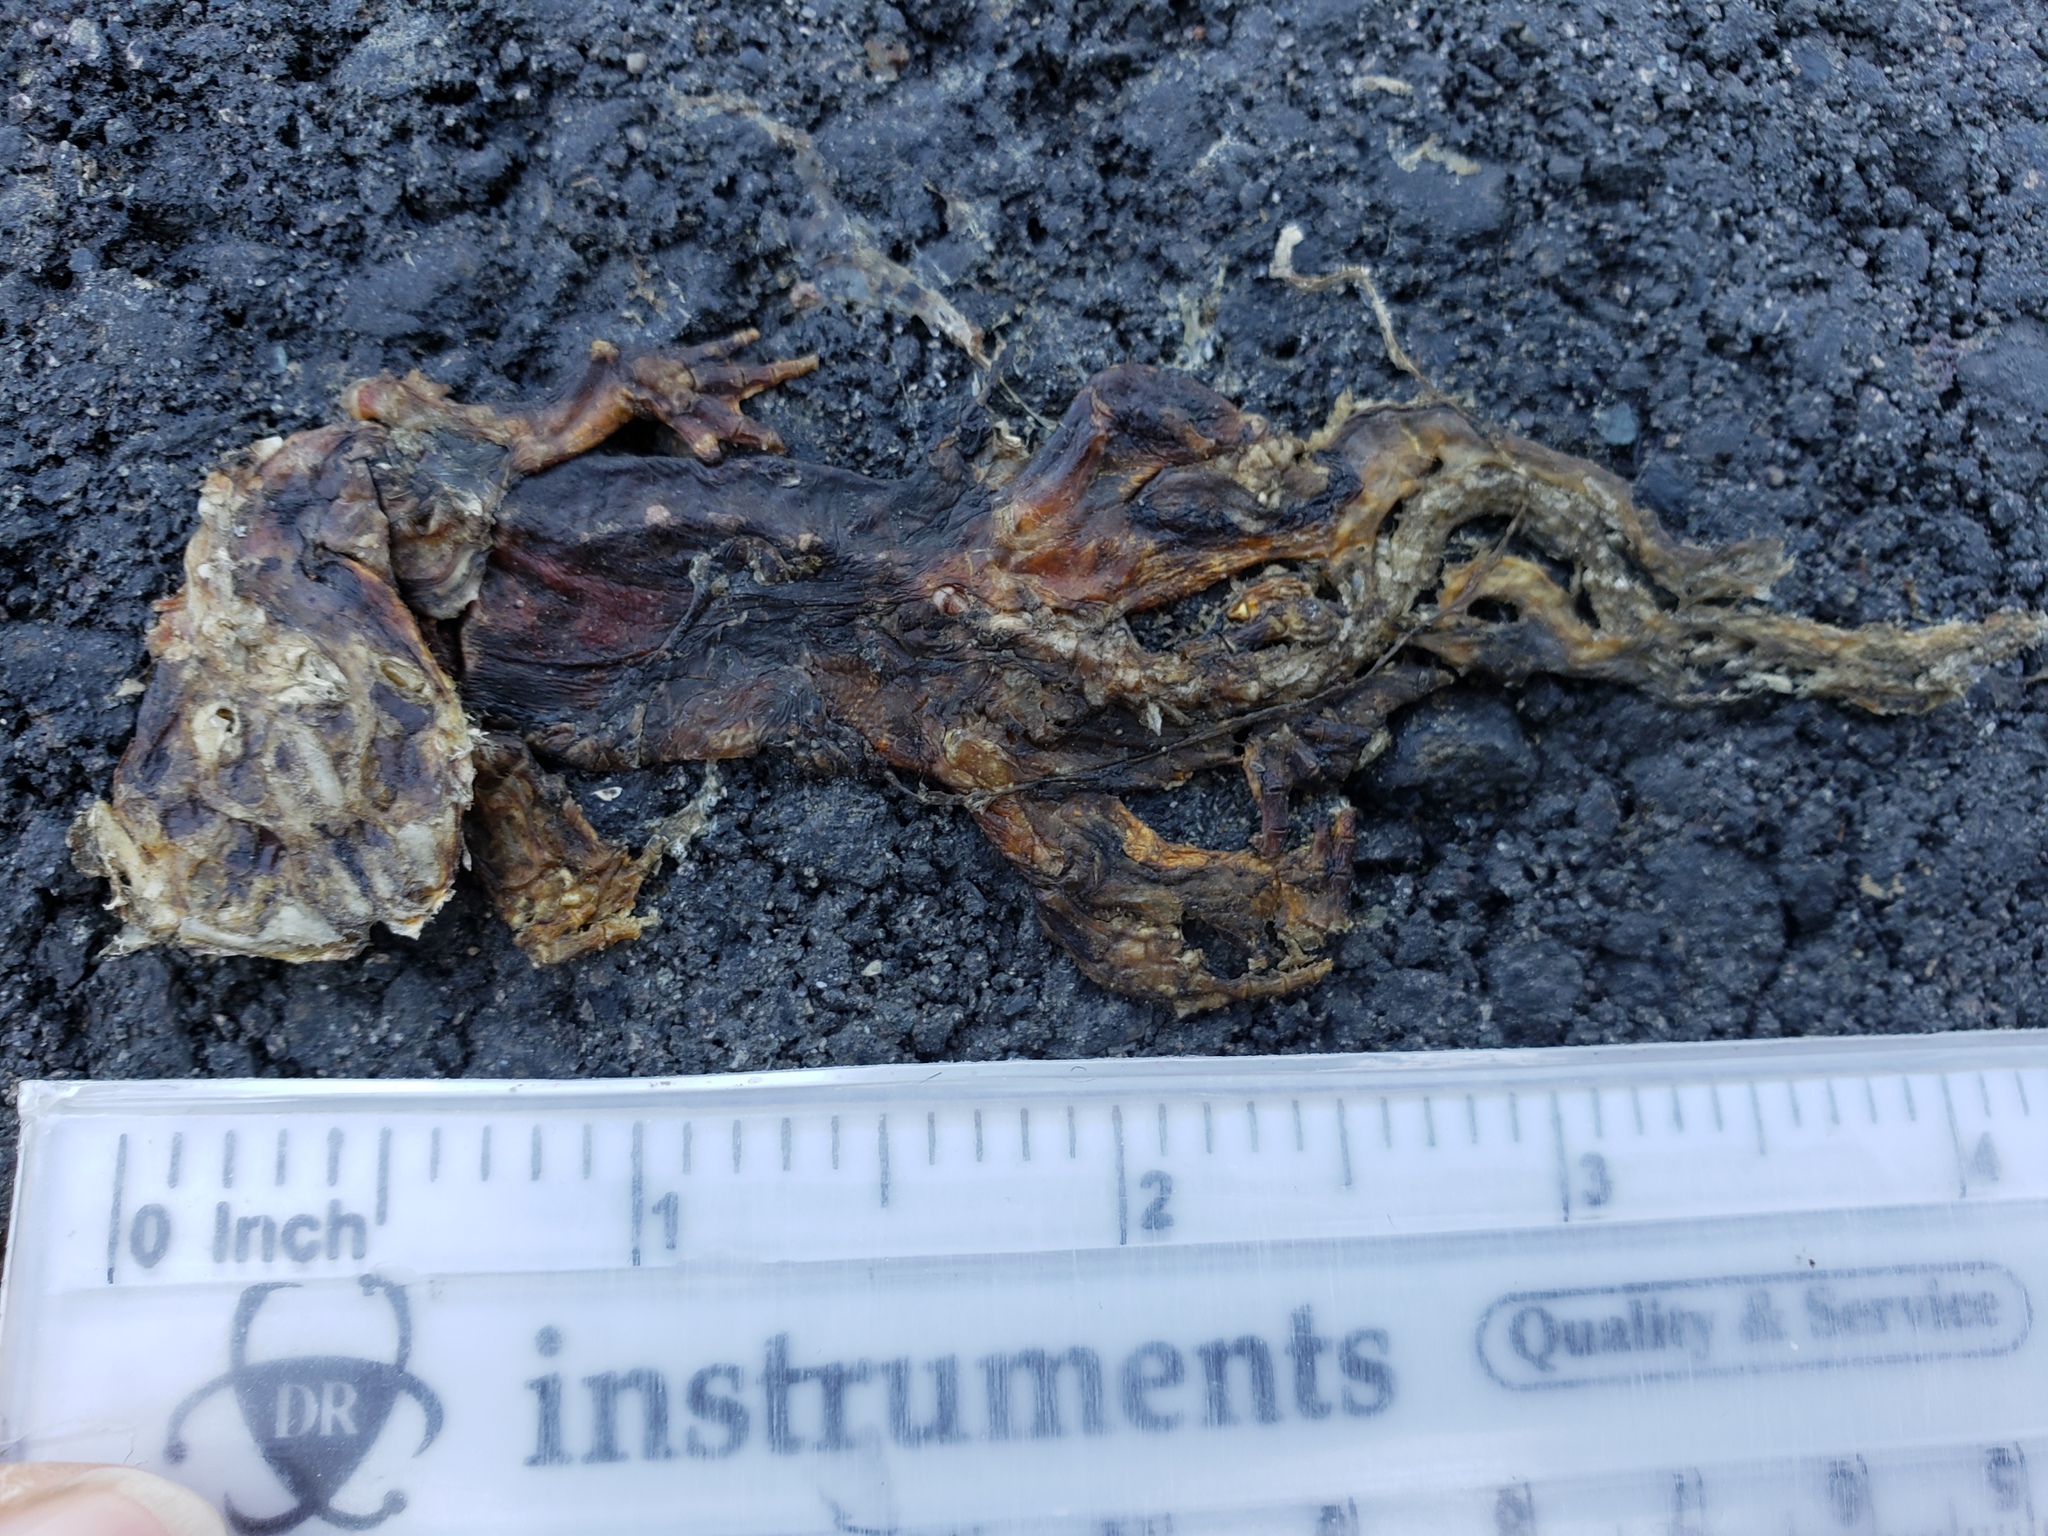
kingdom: Animalia
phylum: Chordata
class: Amphibia
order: Caudata
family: Salamandridae
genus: Taricha
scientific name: Taricha
